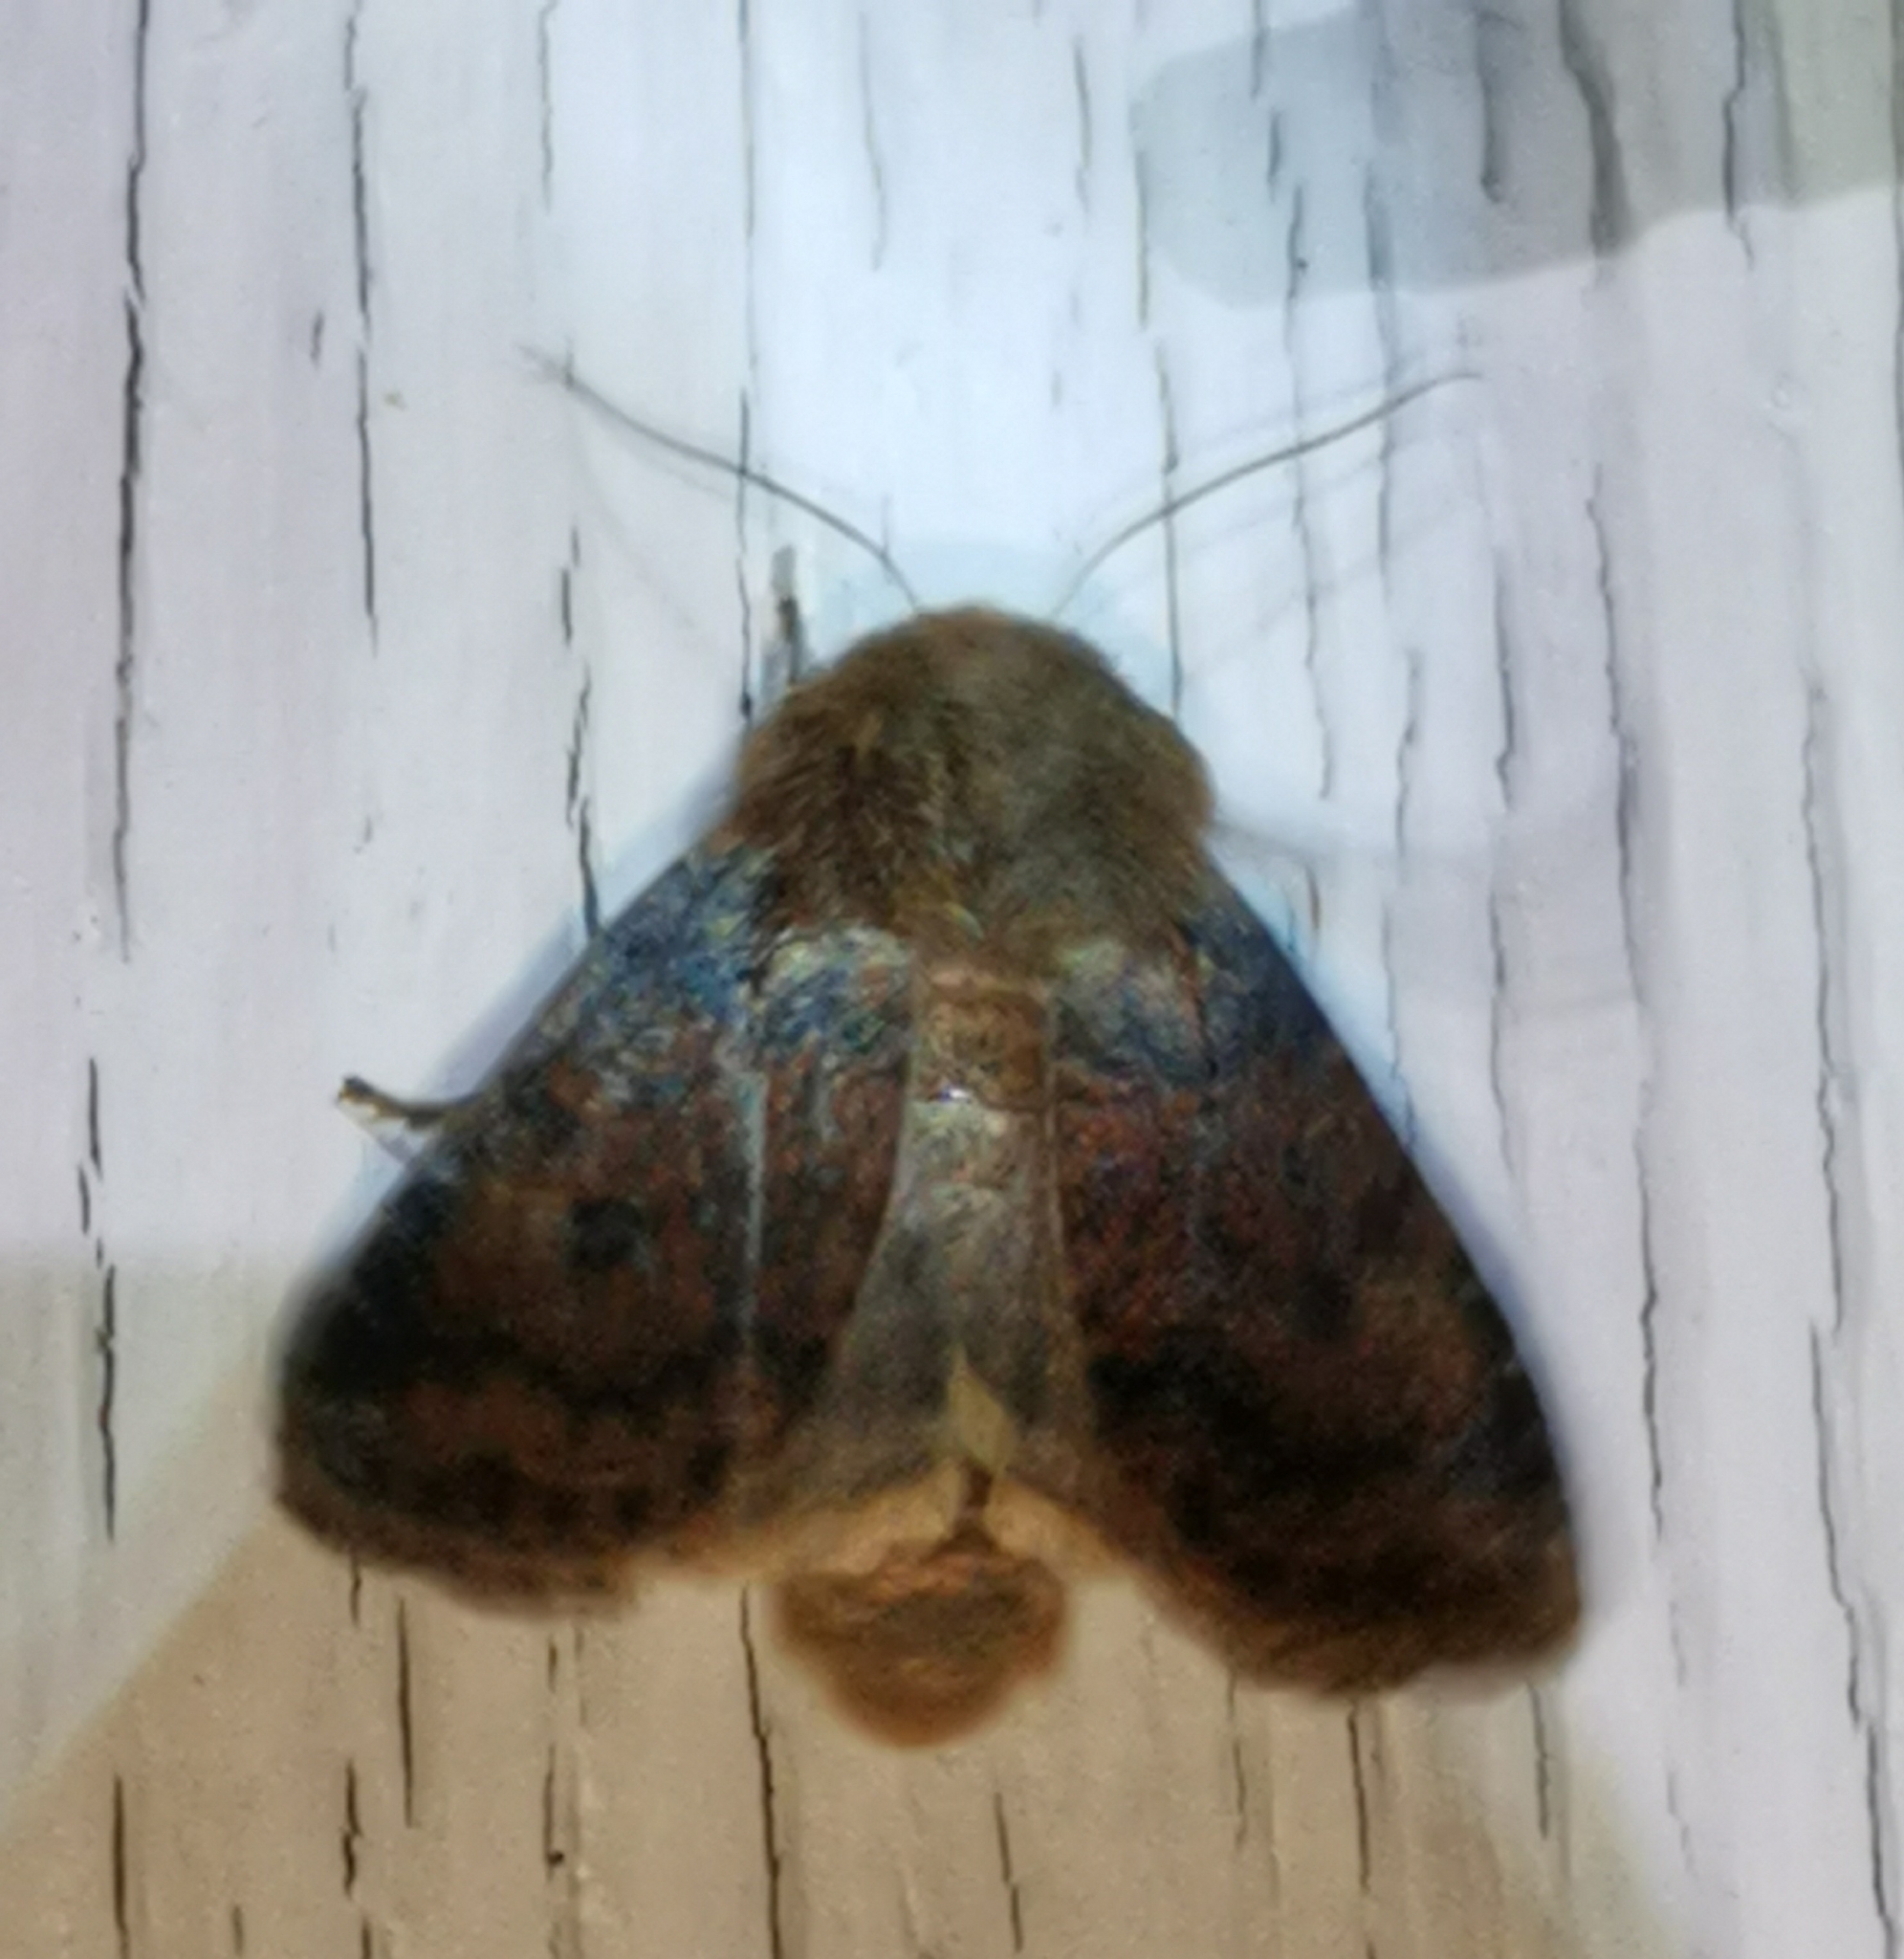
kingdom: Animalia
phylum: Arthropoda
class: Insecta
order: Lepidoptera
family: Noctuidae
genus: Conistra
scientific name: Conistra vaccinii
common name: Chestnut
